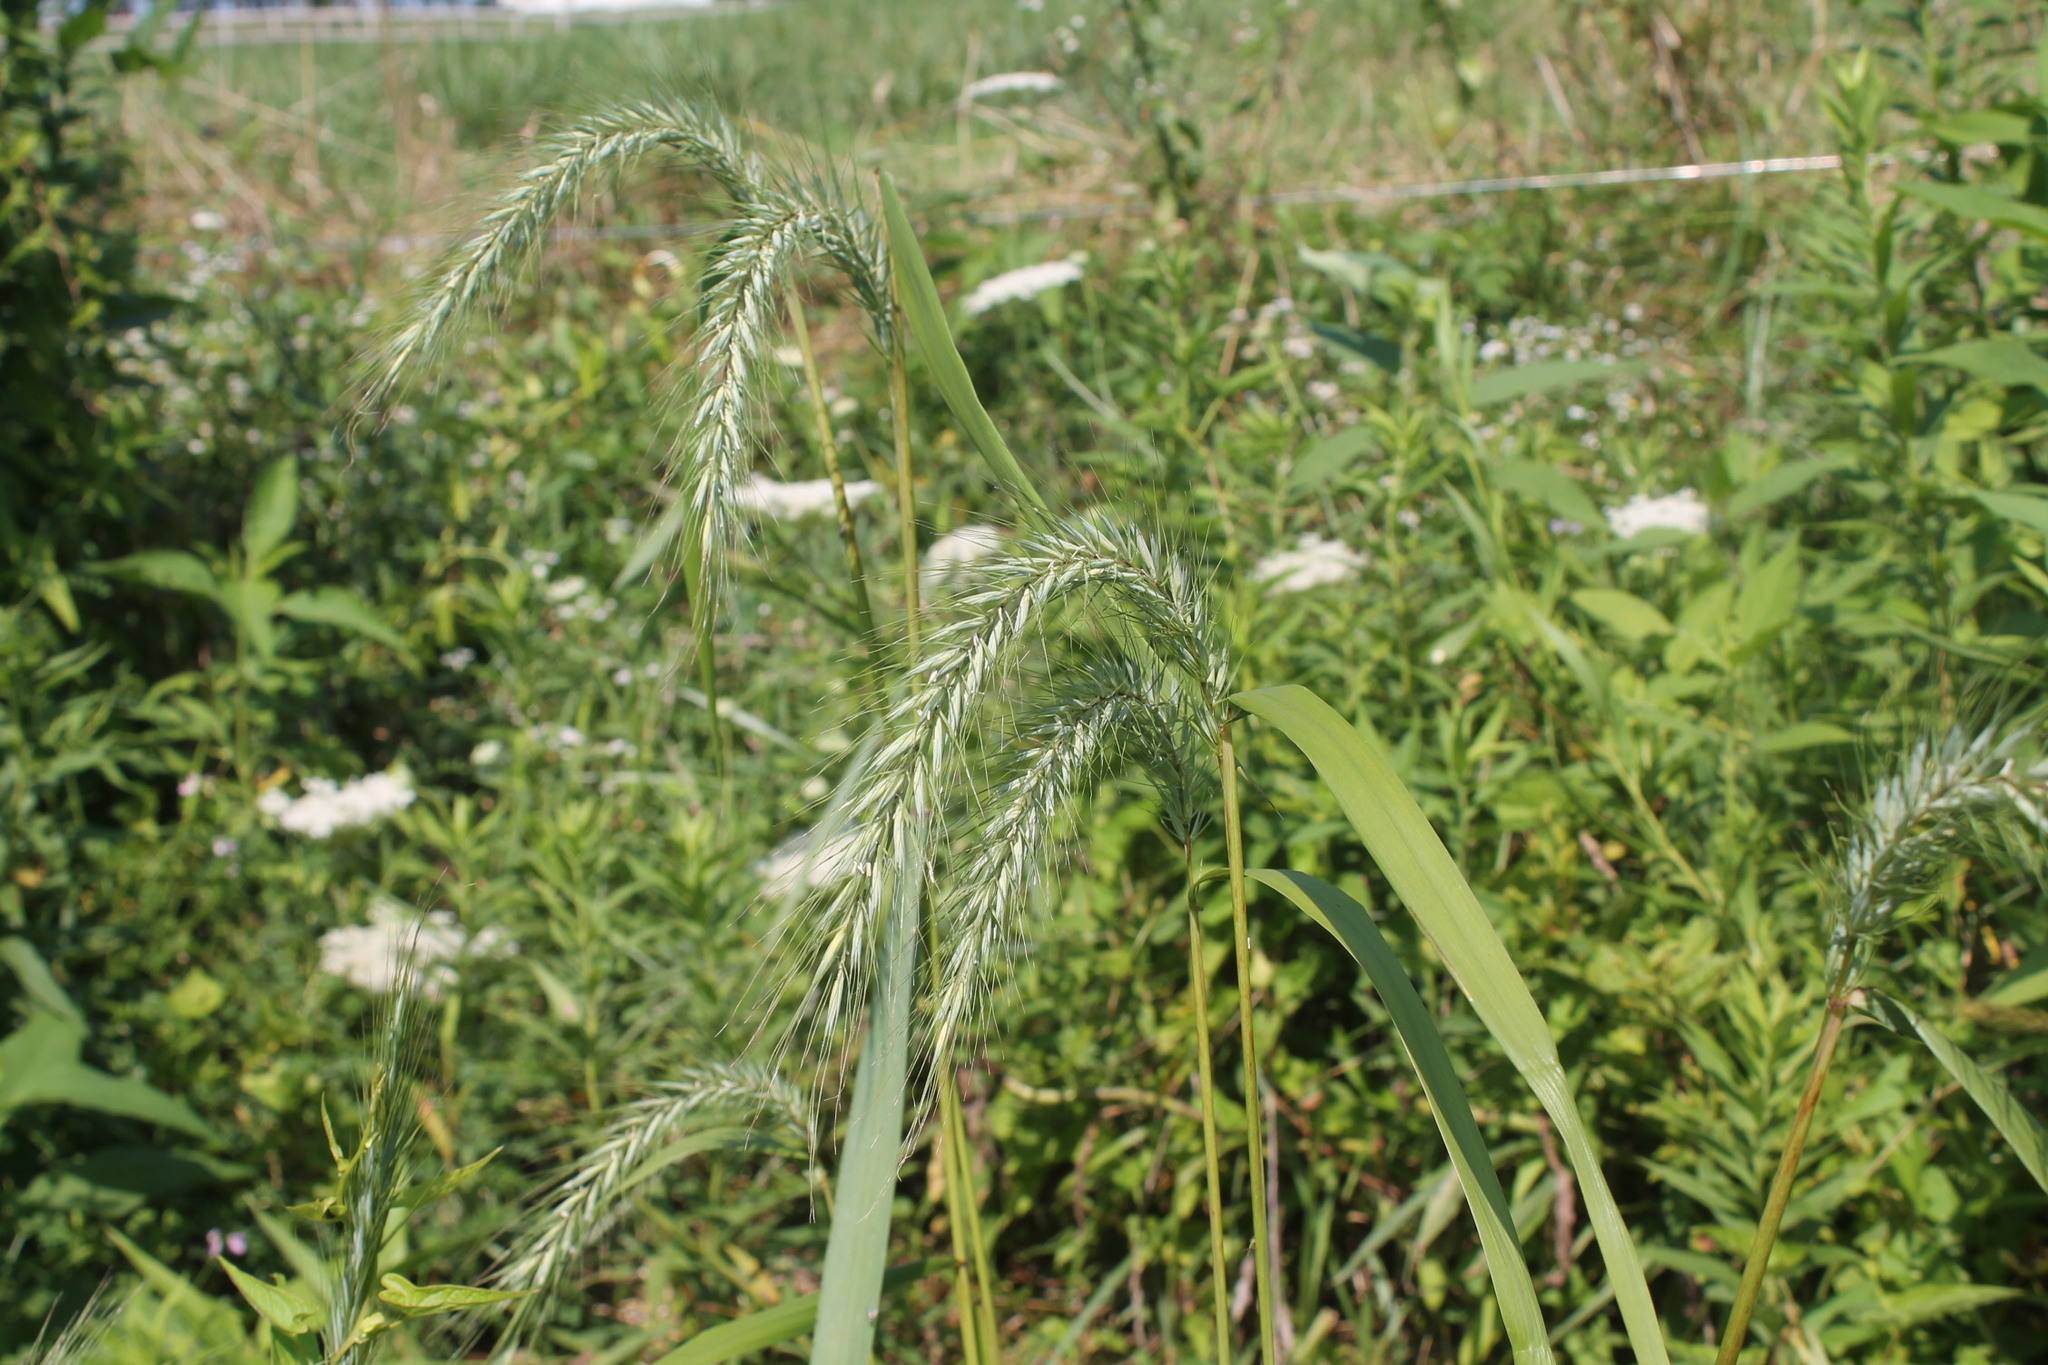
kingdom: Plantae
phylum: Tracheophyta
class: Liliopsida
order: Poales
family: Poaceae
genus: Elymus
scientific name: Elymus canadensis
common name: Canada wild rye
